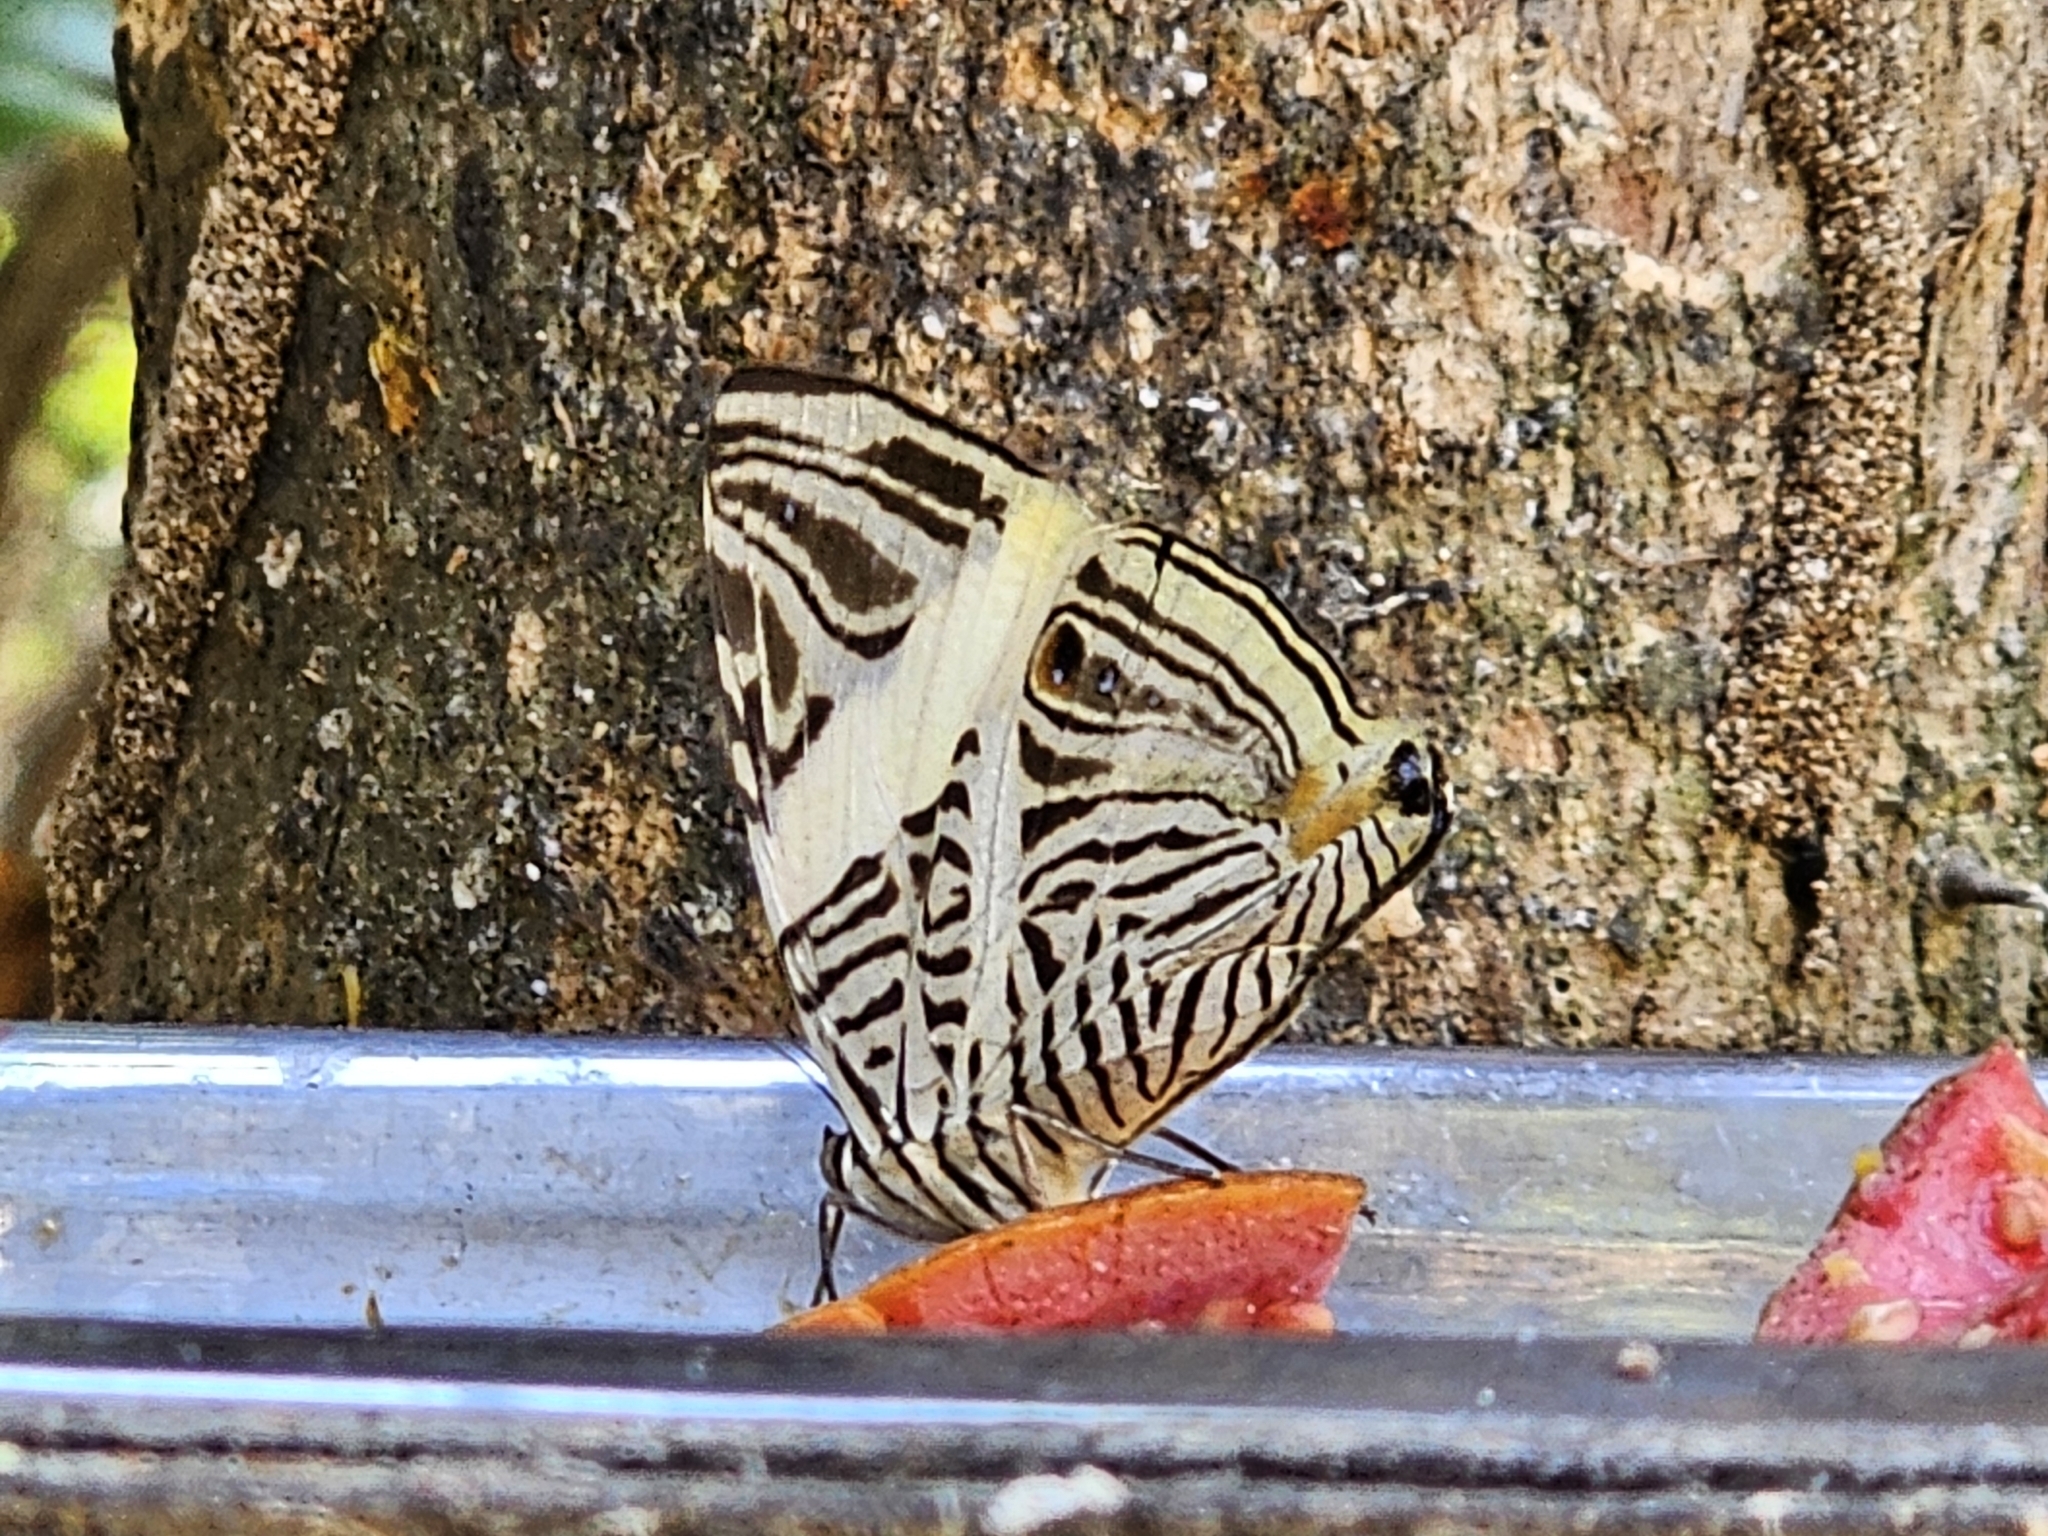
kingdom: Animalia
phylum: Arthropoda
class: Insecta
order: Lepidoptera
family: Nymphalidae
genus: Colobura
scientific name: Colobura dirce
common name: Dirce beauty
